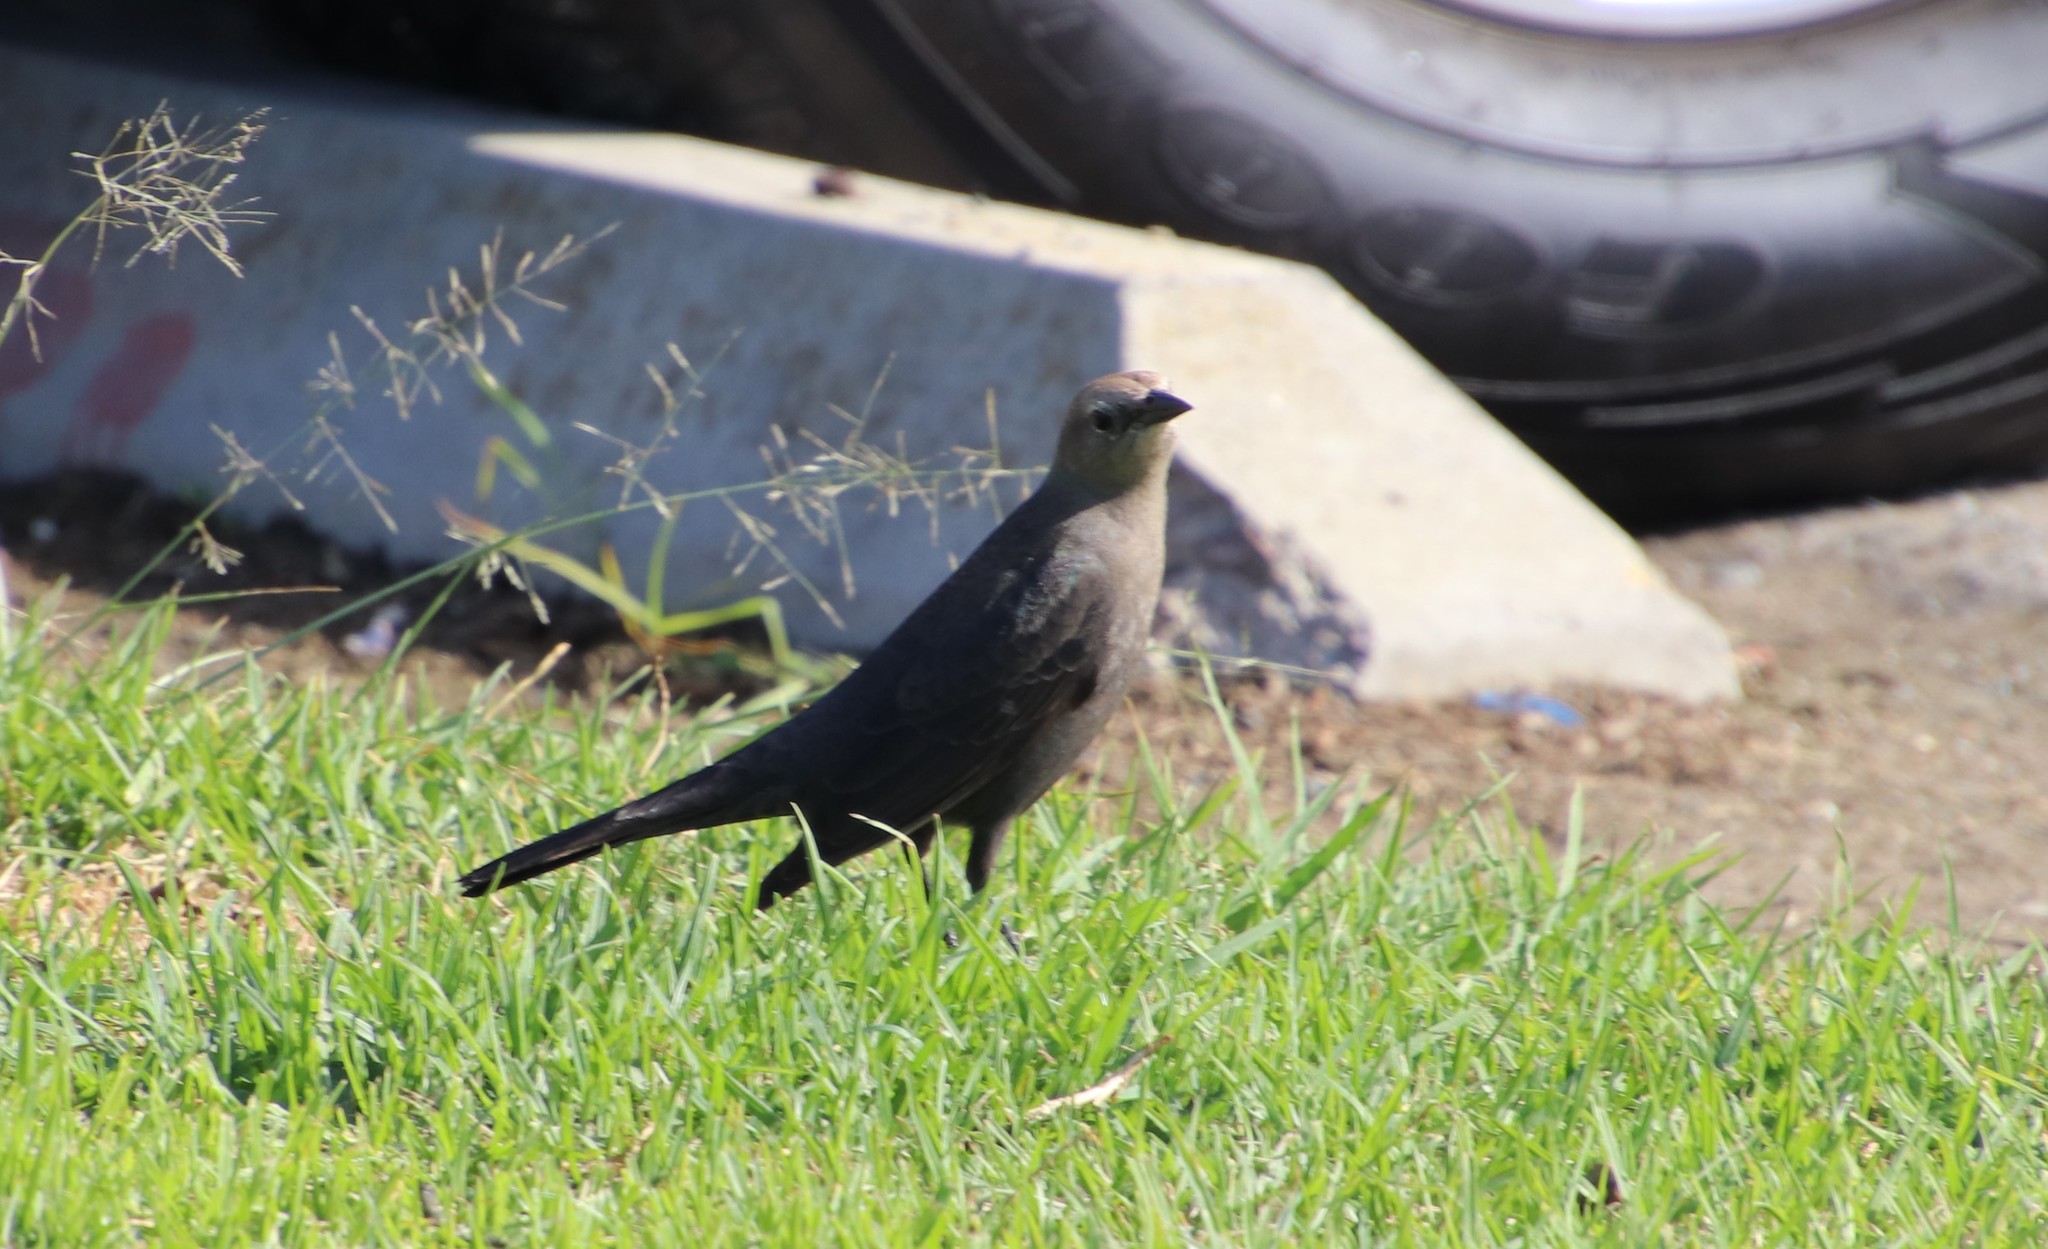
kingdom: Animalia
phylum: Chordata
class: Aves
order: Passeriformes
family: Icteridae
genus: Euphagus
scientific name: Euphagus cyanocephalus
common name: Brewer's blackbird
